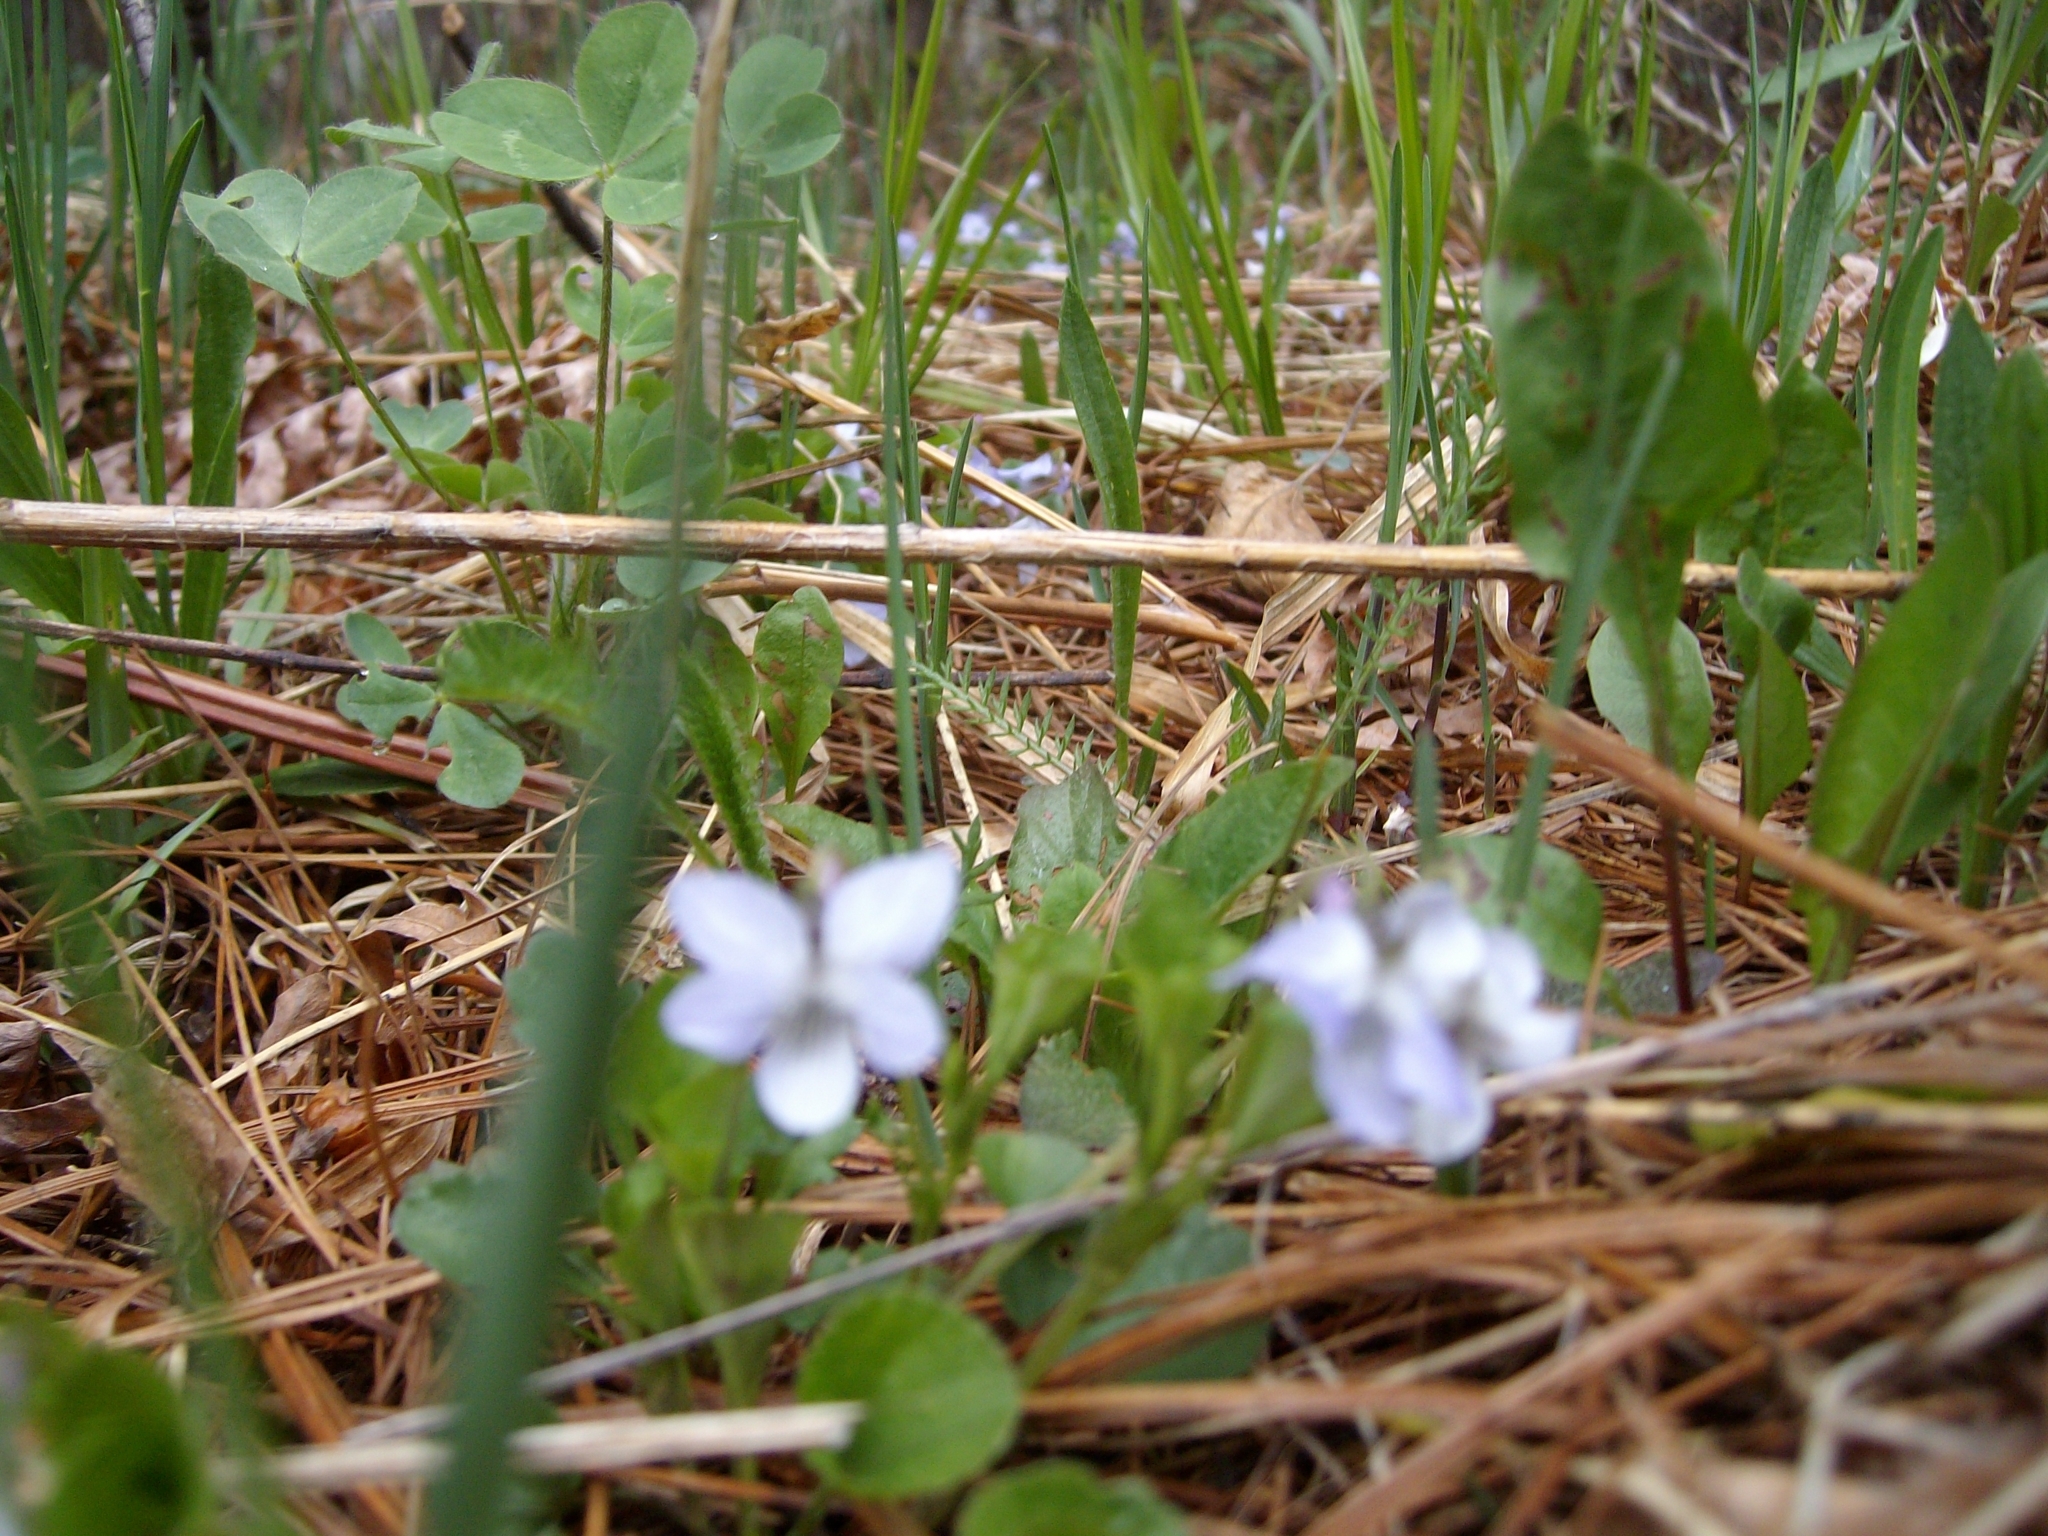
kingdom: Plantae
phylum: Tracheophyta
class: Magnoliopsida
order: Malpighiales
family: Violaceae
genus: Viola
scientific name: Viola labradorica
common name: Labrador violet
